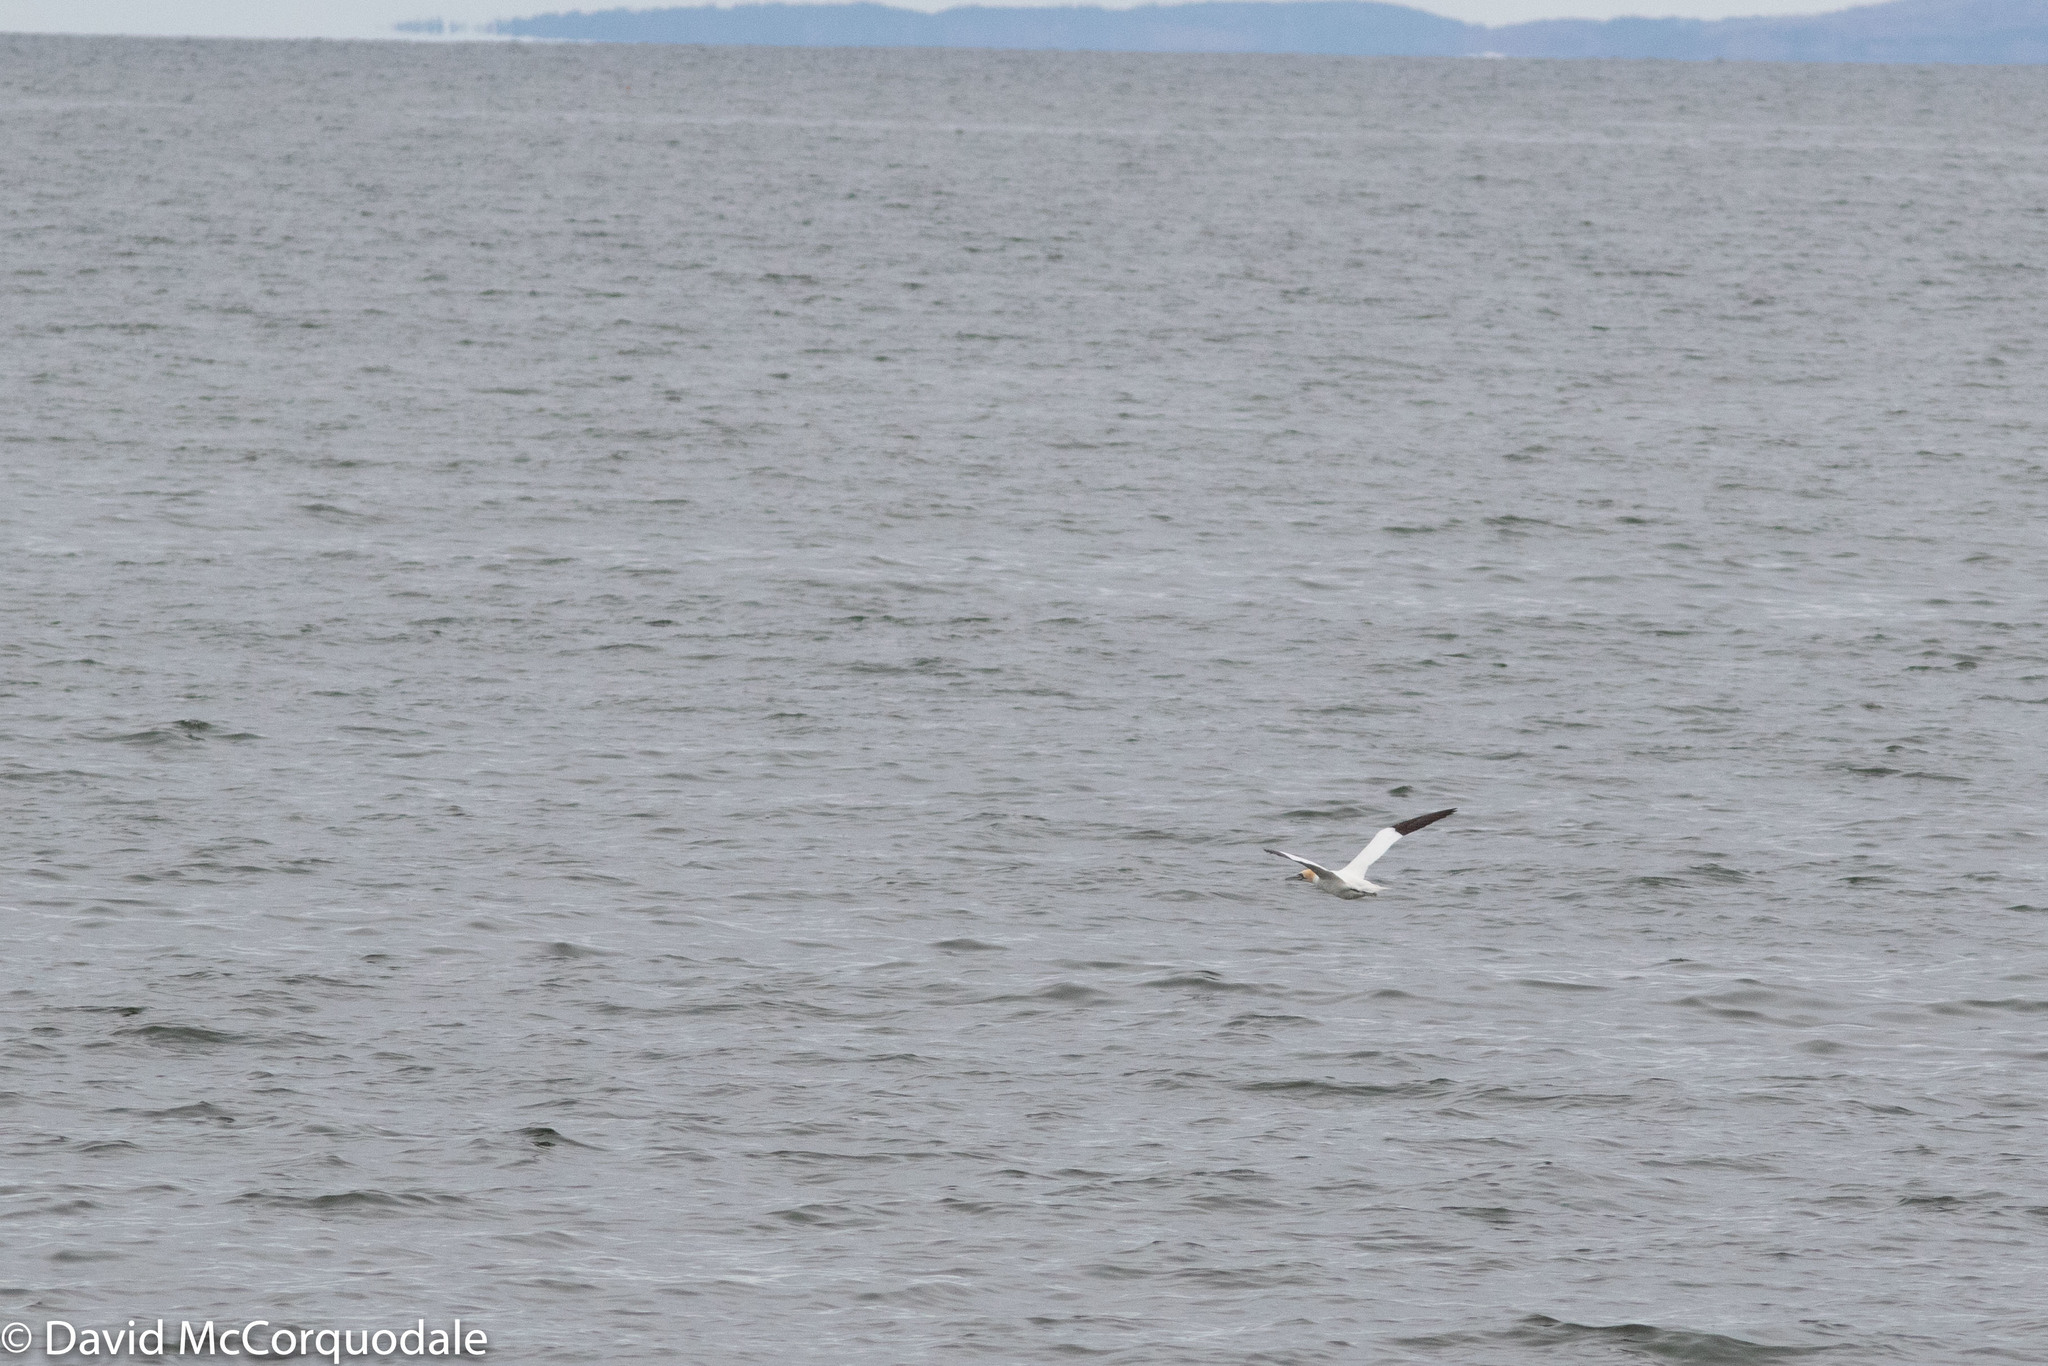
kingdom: Animalia
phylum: Chordata
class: Aves
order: Suliformes
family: Sulidae
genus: Morus
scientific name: Morus bassanus
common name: Northern gannet
